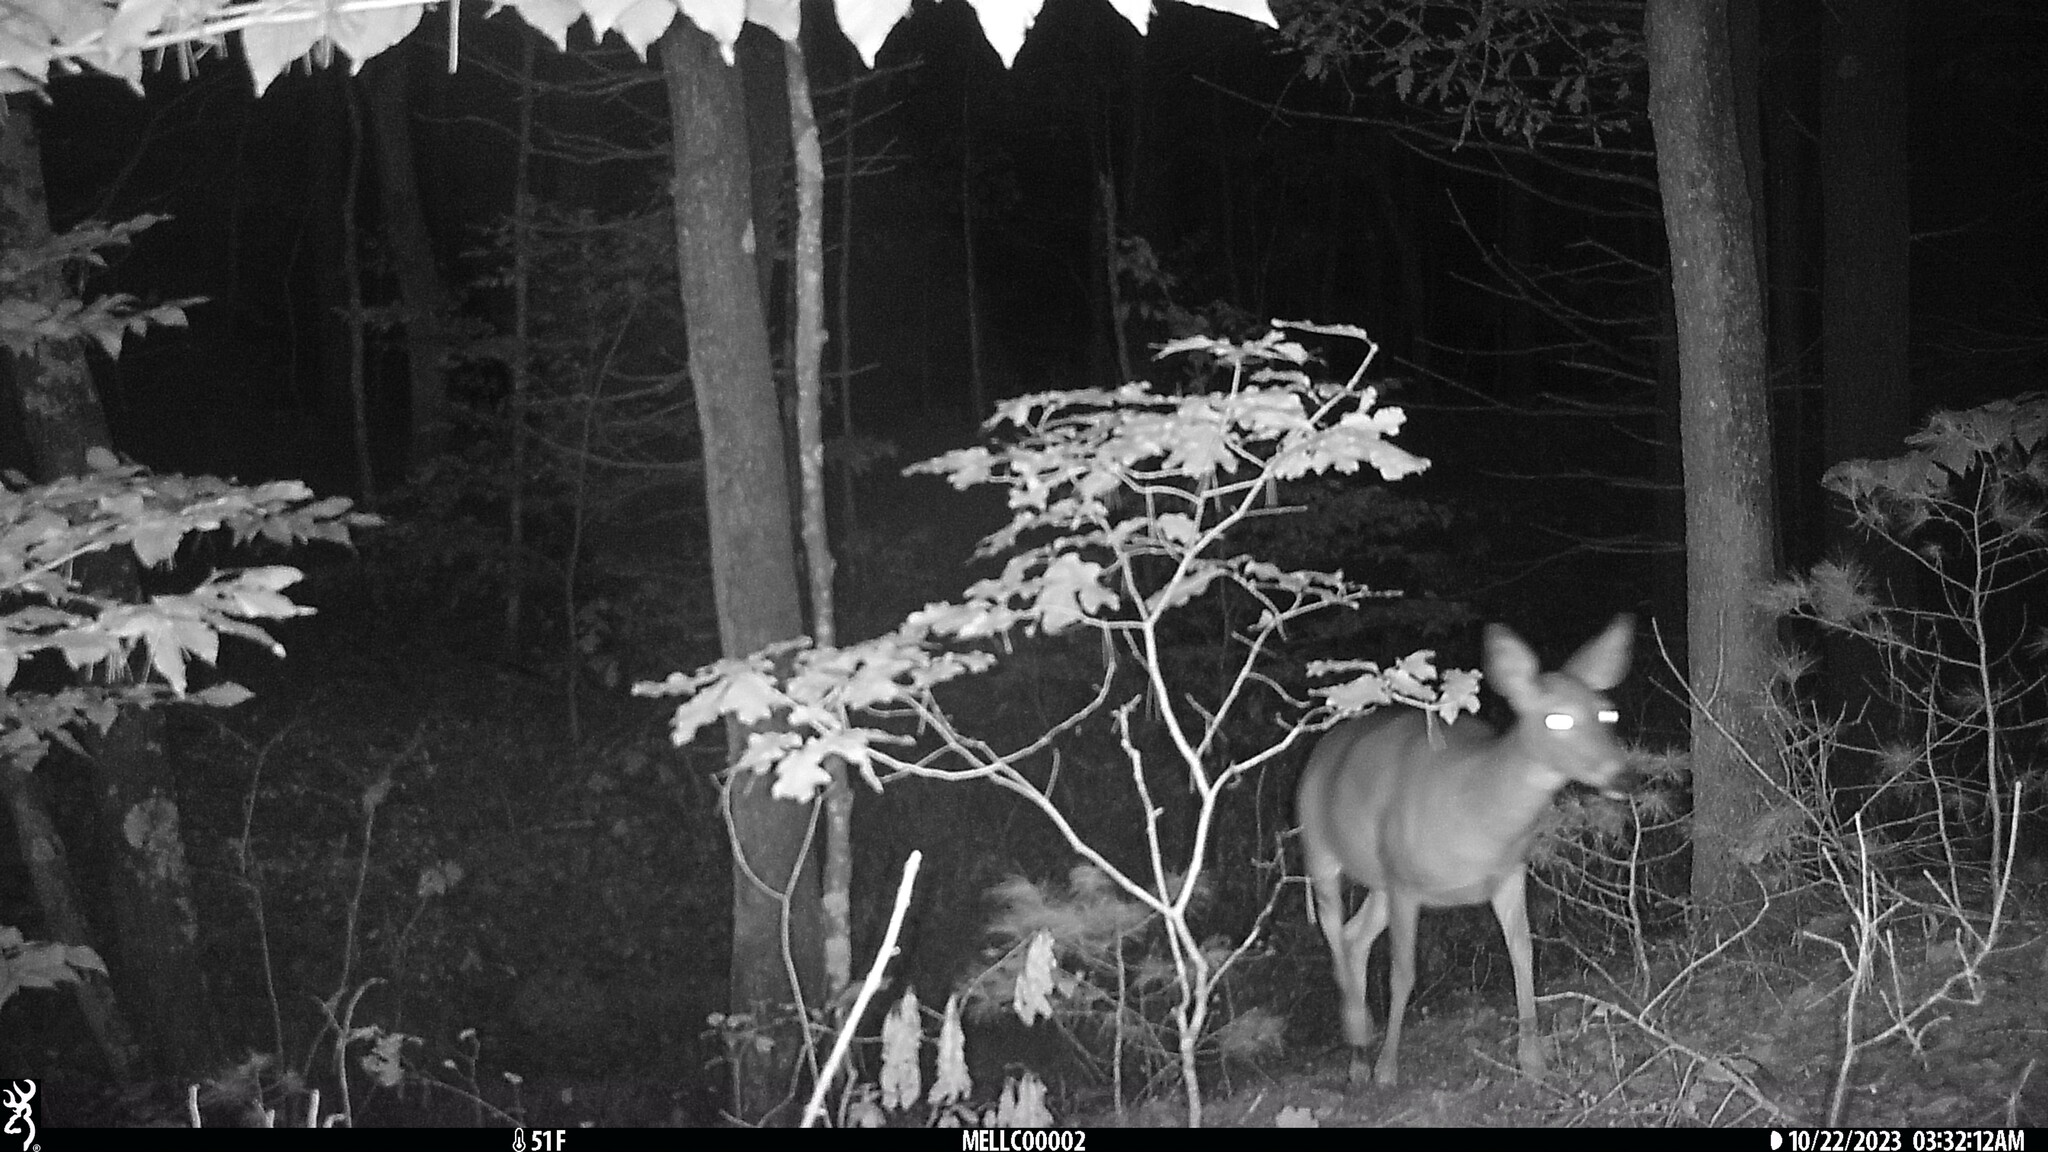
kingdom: Animalia
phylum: Chordata
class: Mammalia
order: Artiodactyla
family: Cervidae
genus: Odocoileus
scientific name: Odocoileus virginianus
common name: White-tailed deer
